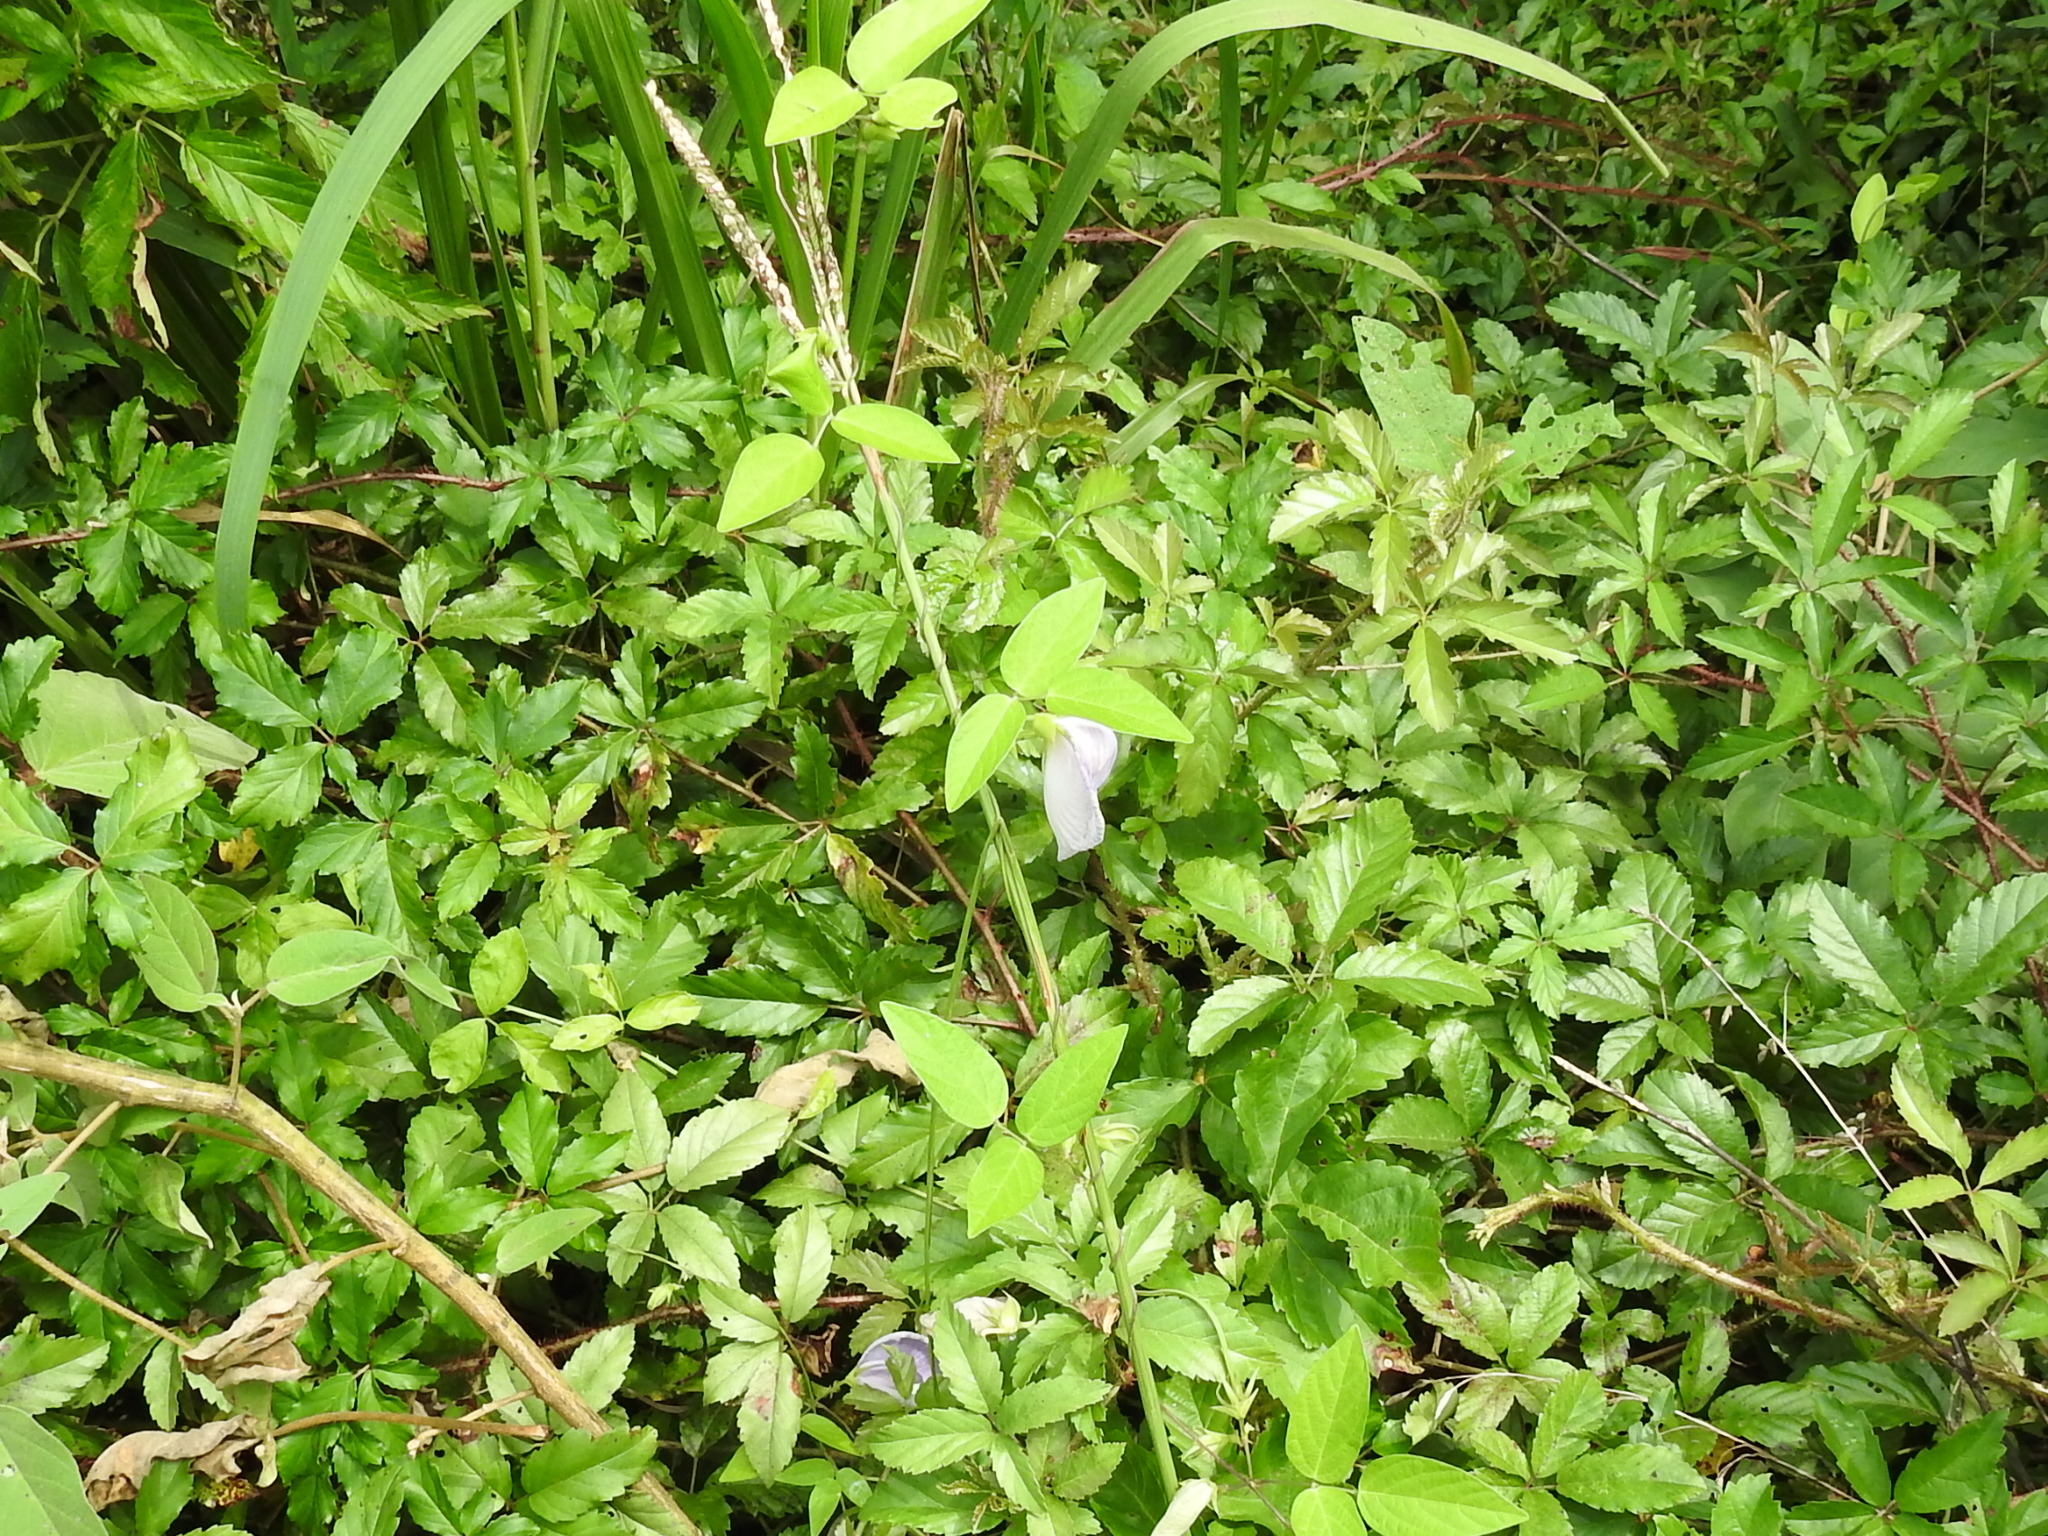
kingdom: Plantae
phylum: Tracheophyta
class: Magnoliopsida
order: Fabales
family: Fabaceae
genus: Centrosema
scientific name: Centrosema virginianum
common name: Butterfly-pea
